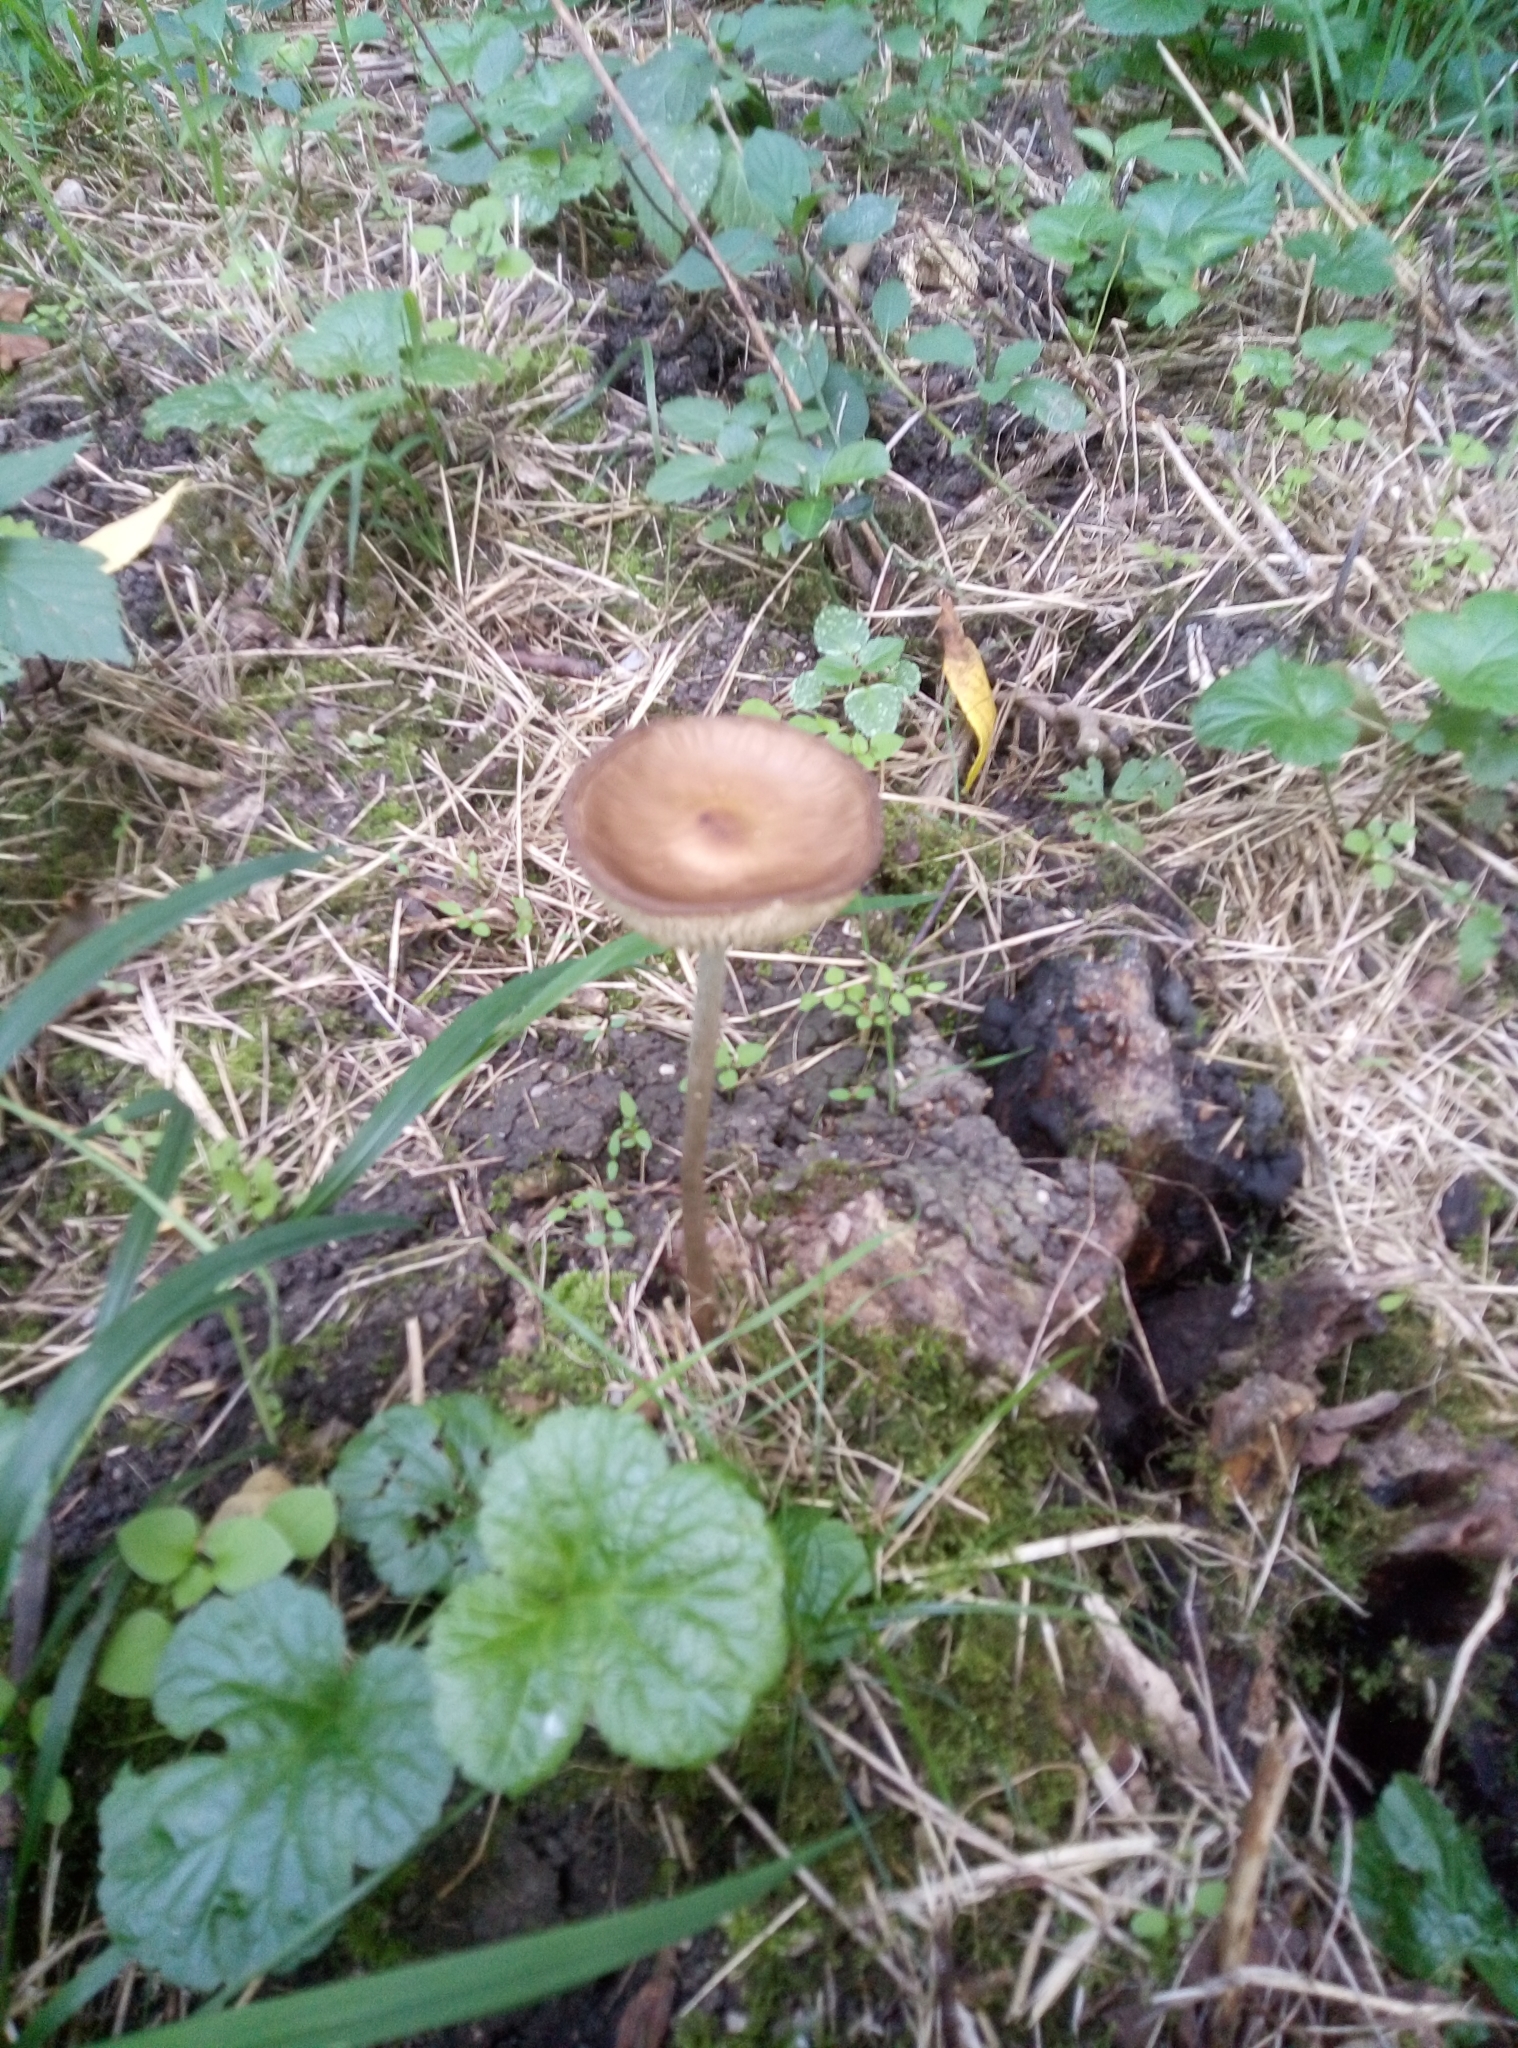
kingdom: Fungi
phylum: Basidiomycota
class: Agaricomycetes
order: Agaricales
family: Physalacriaceae
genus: Hymenopellis
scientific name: Hymenopellis furfuracea
